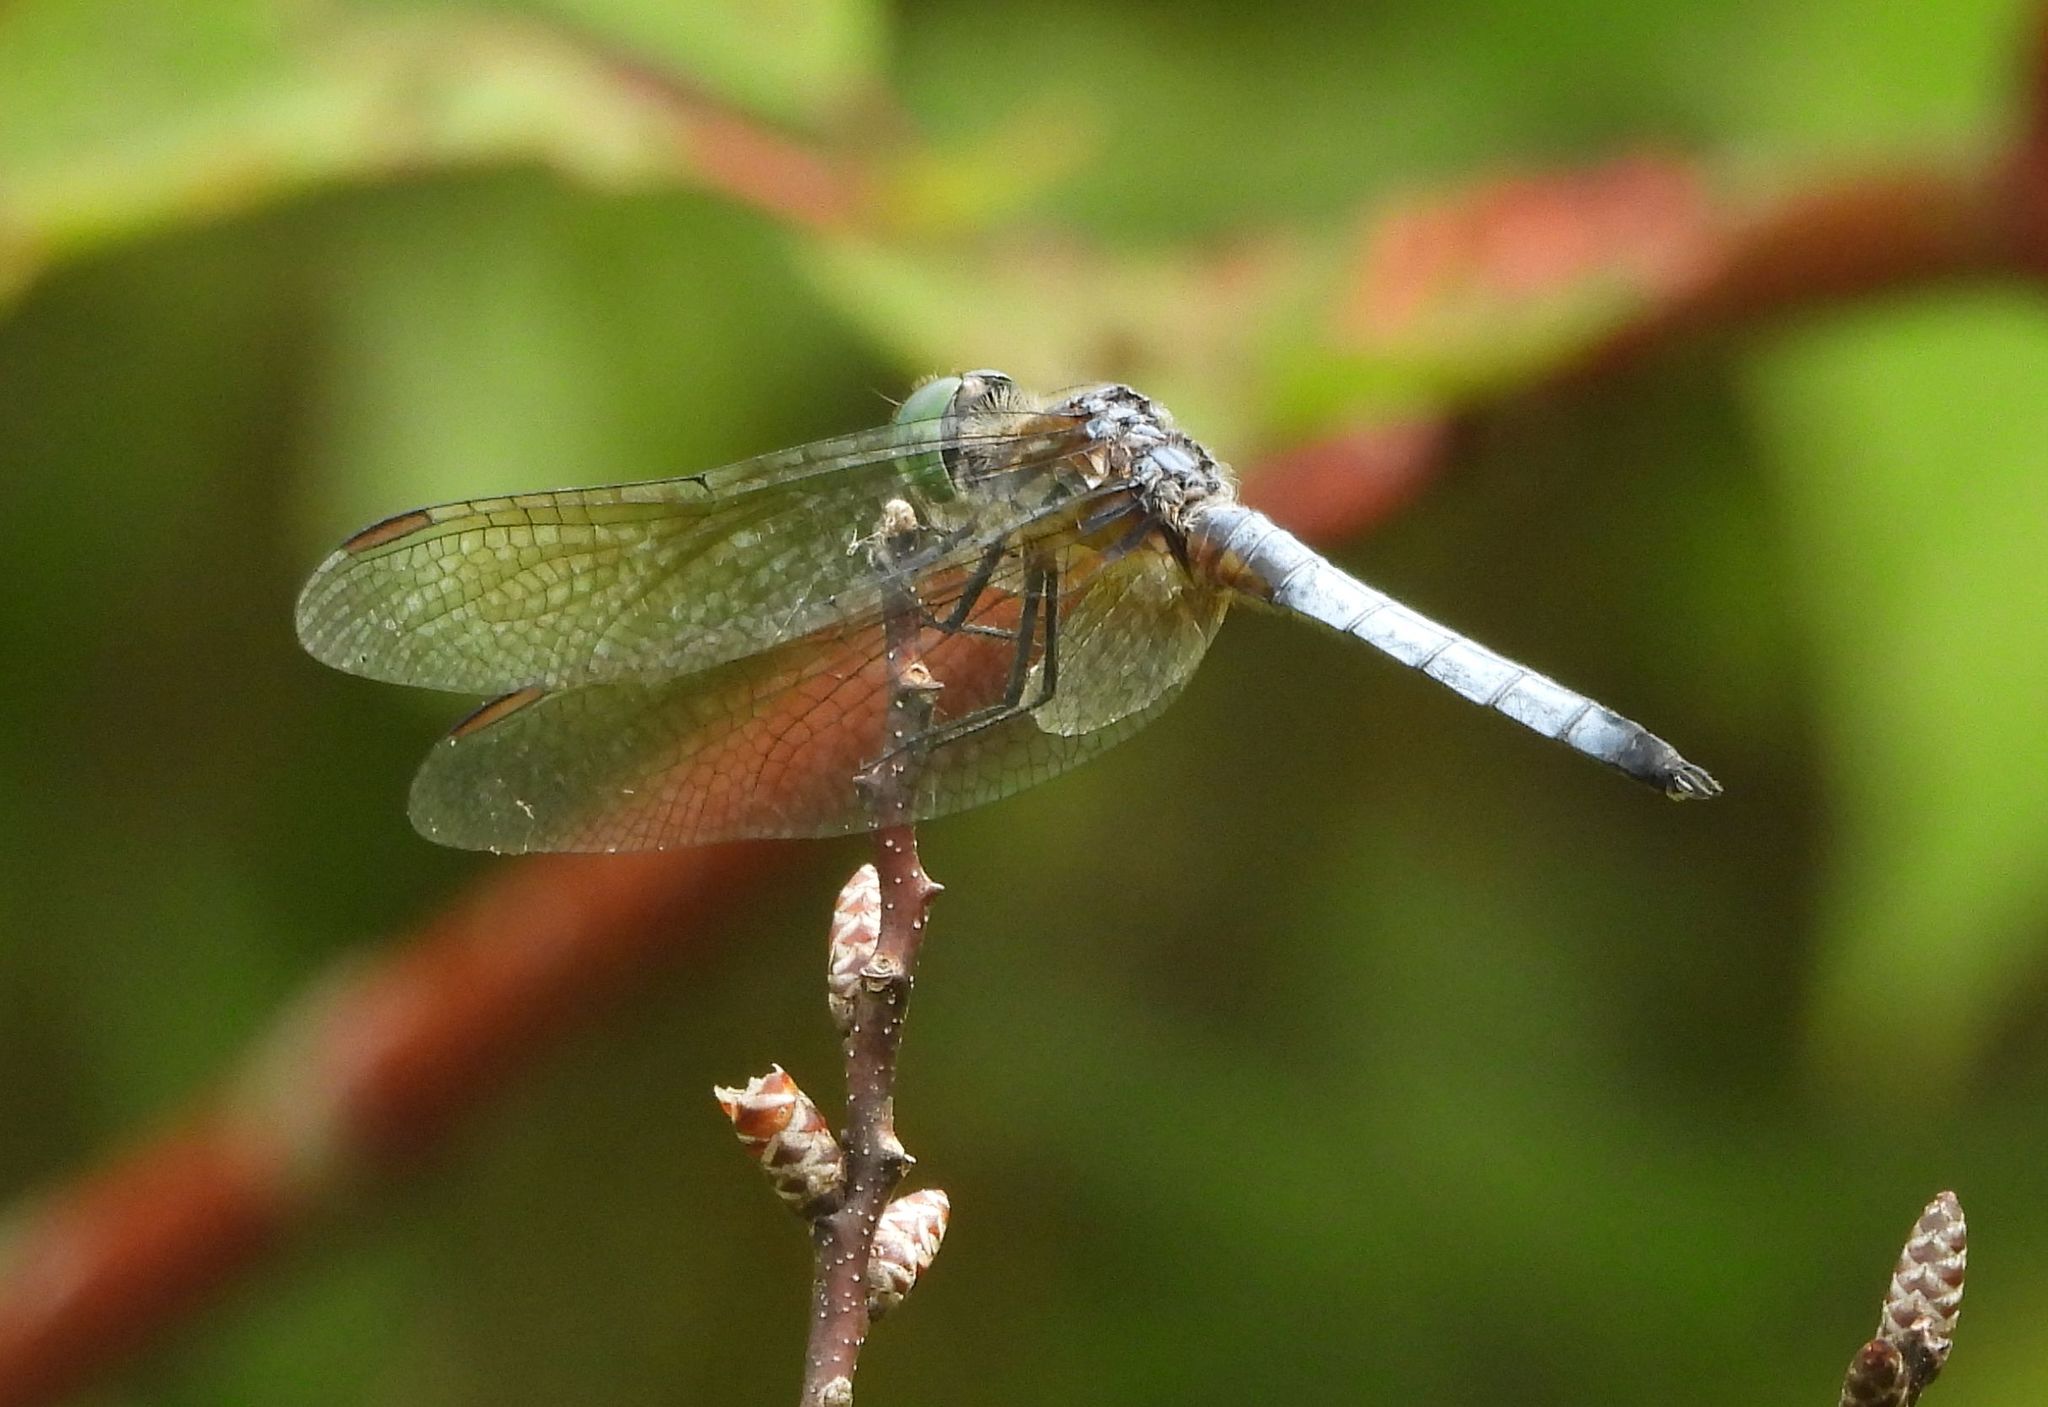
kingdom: Animalia
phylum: Arthropoda
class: Insecta
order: Odonata
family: Libellulidae
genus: Pachydiplax
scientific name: Pachydiplax longipennis
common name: Blue dasher
